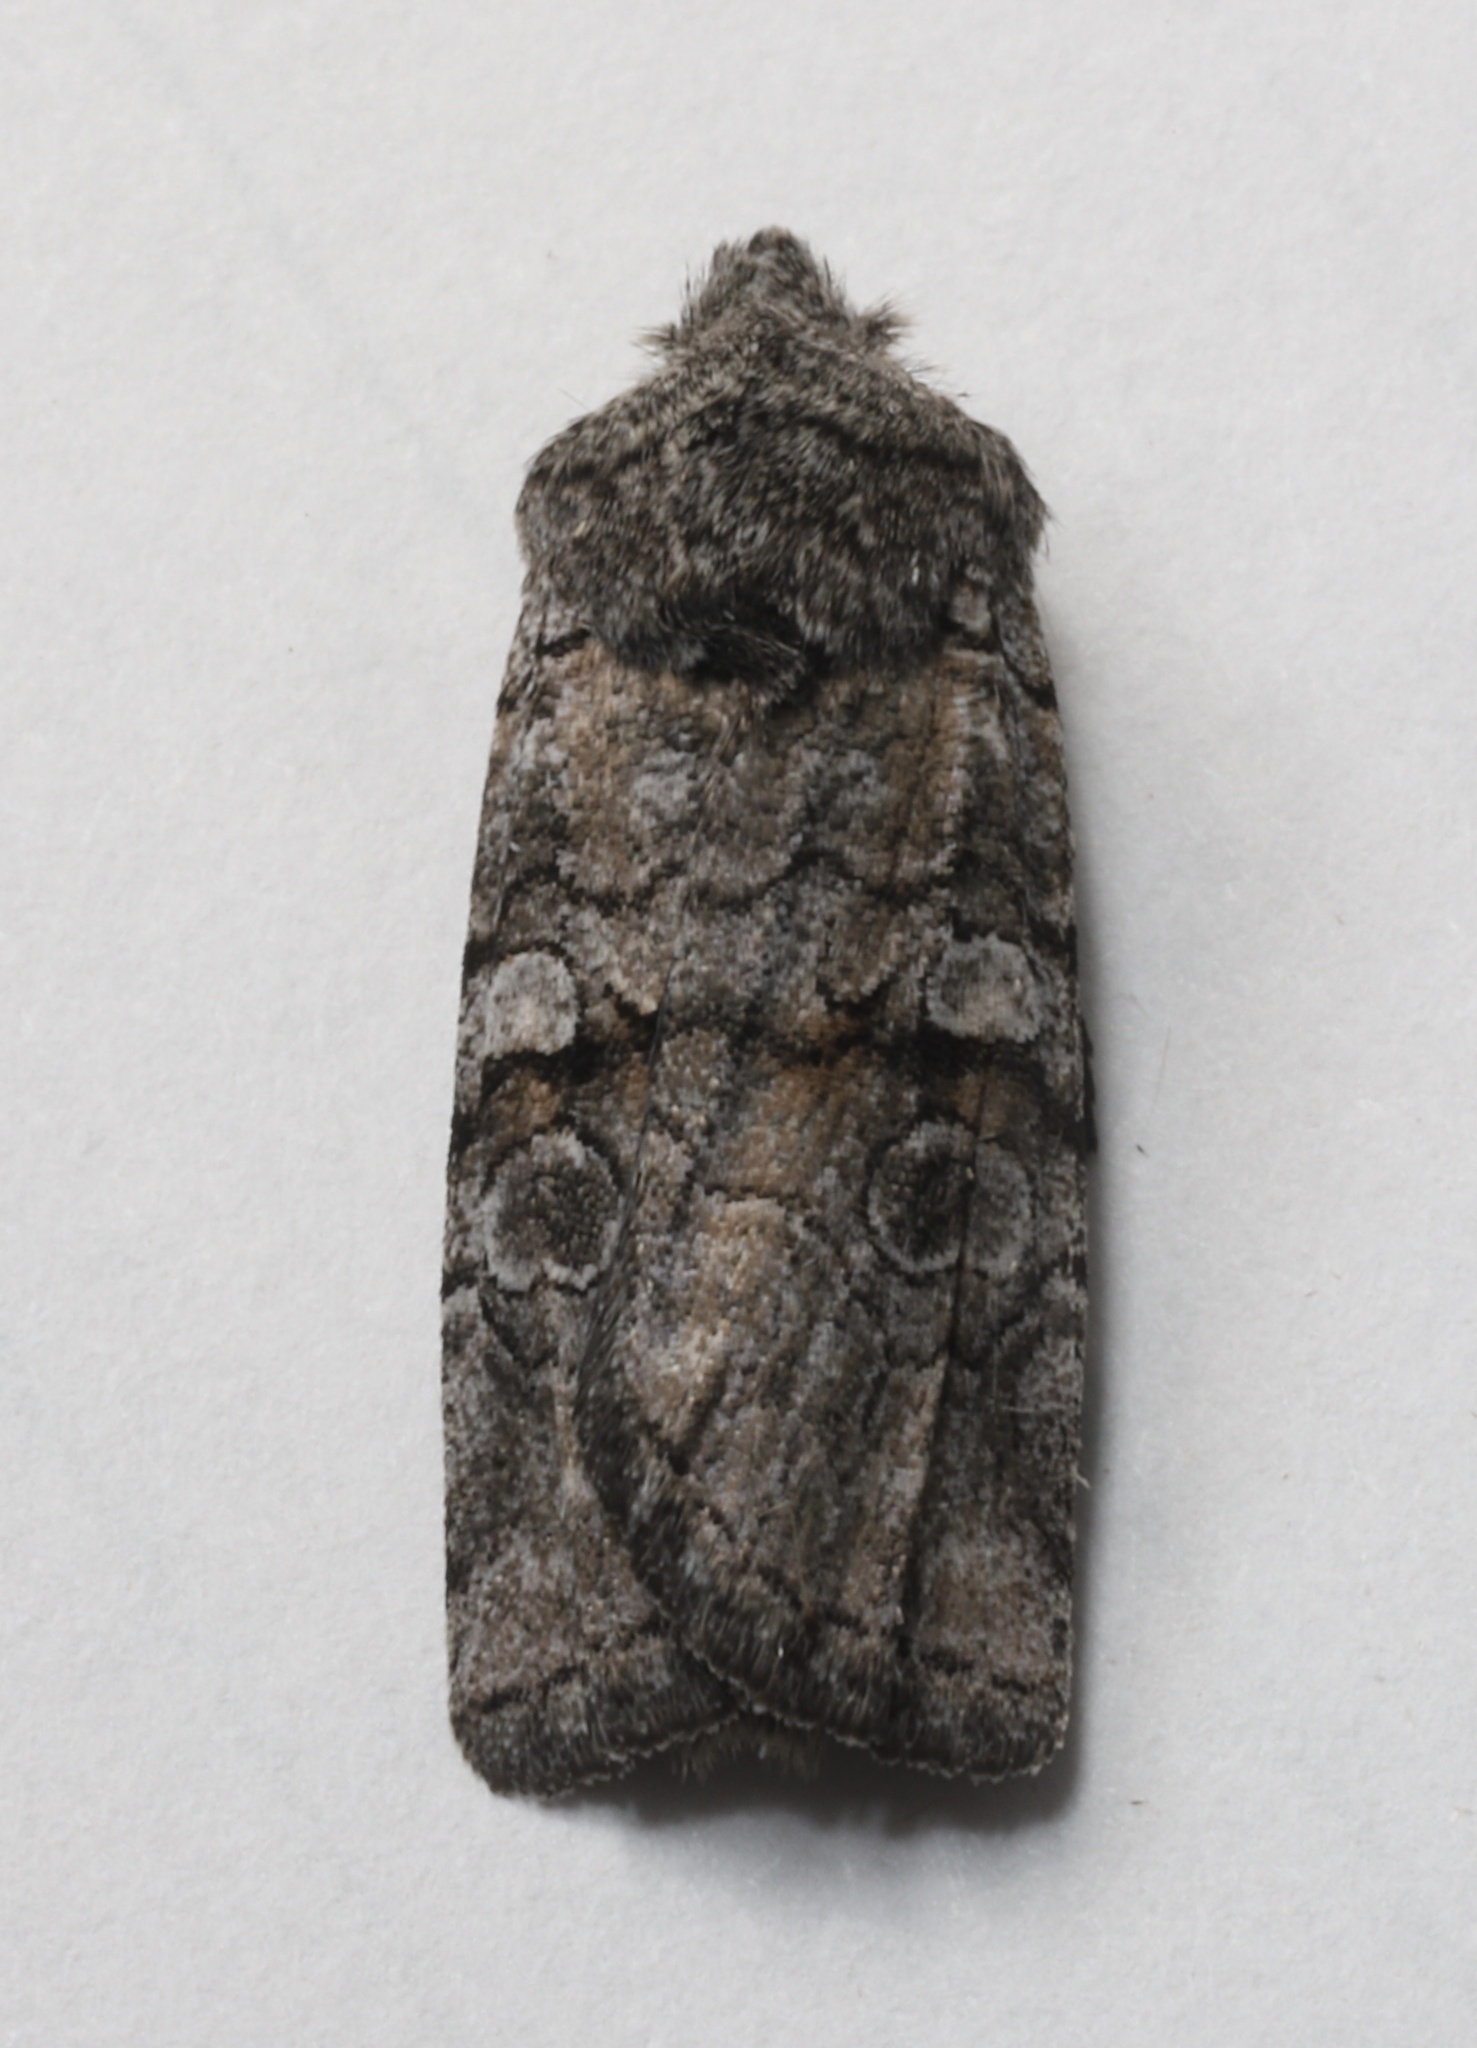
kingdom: Animalia
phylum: Arthropoda
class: Insecta
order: Lepidoptera
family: Noctuidae
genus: Litholomia
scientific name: Litholomia napaea
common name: False pinion moth
